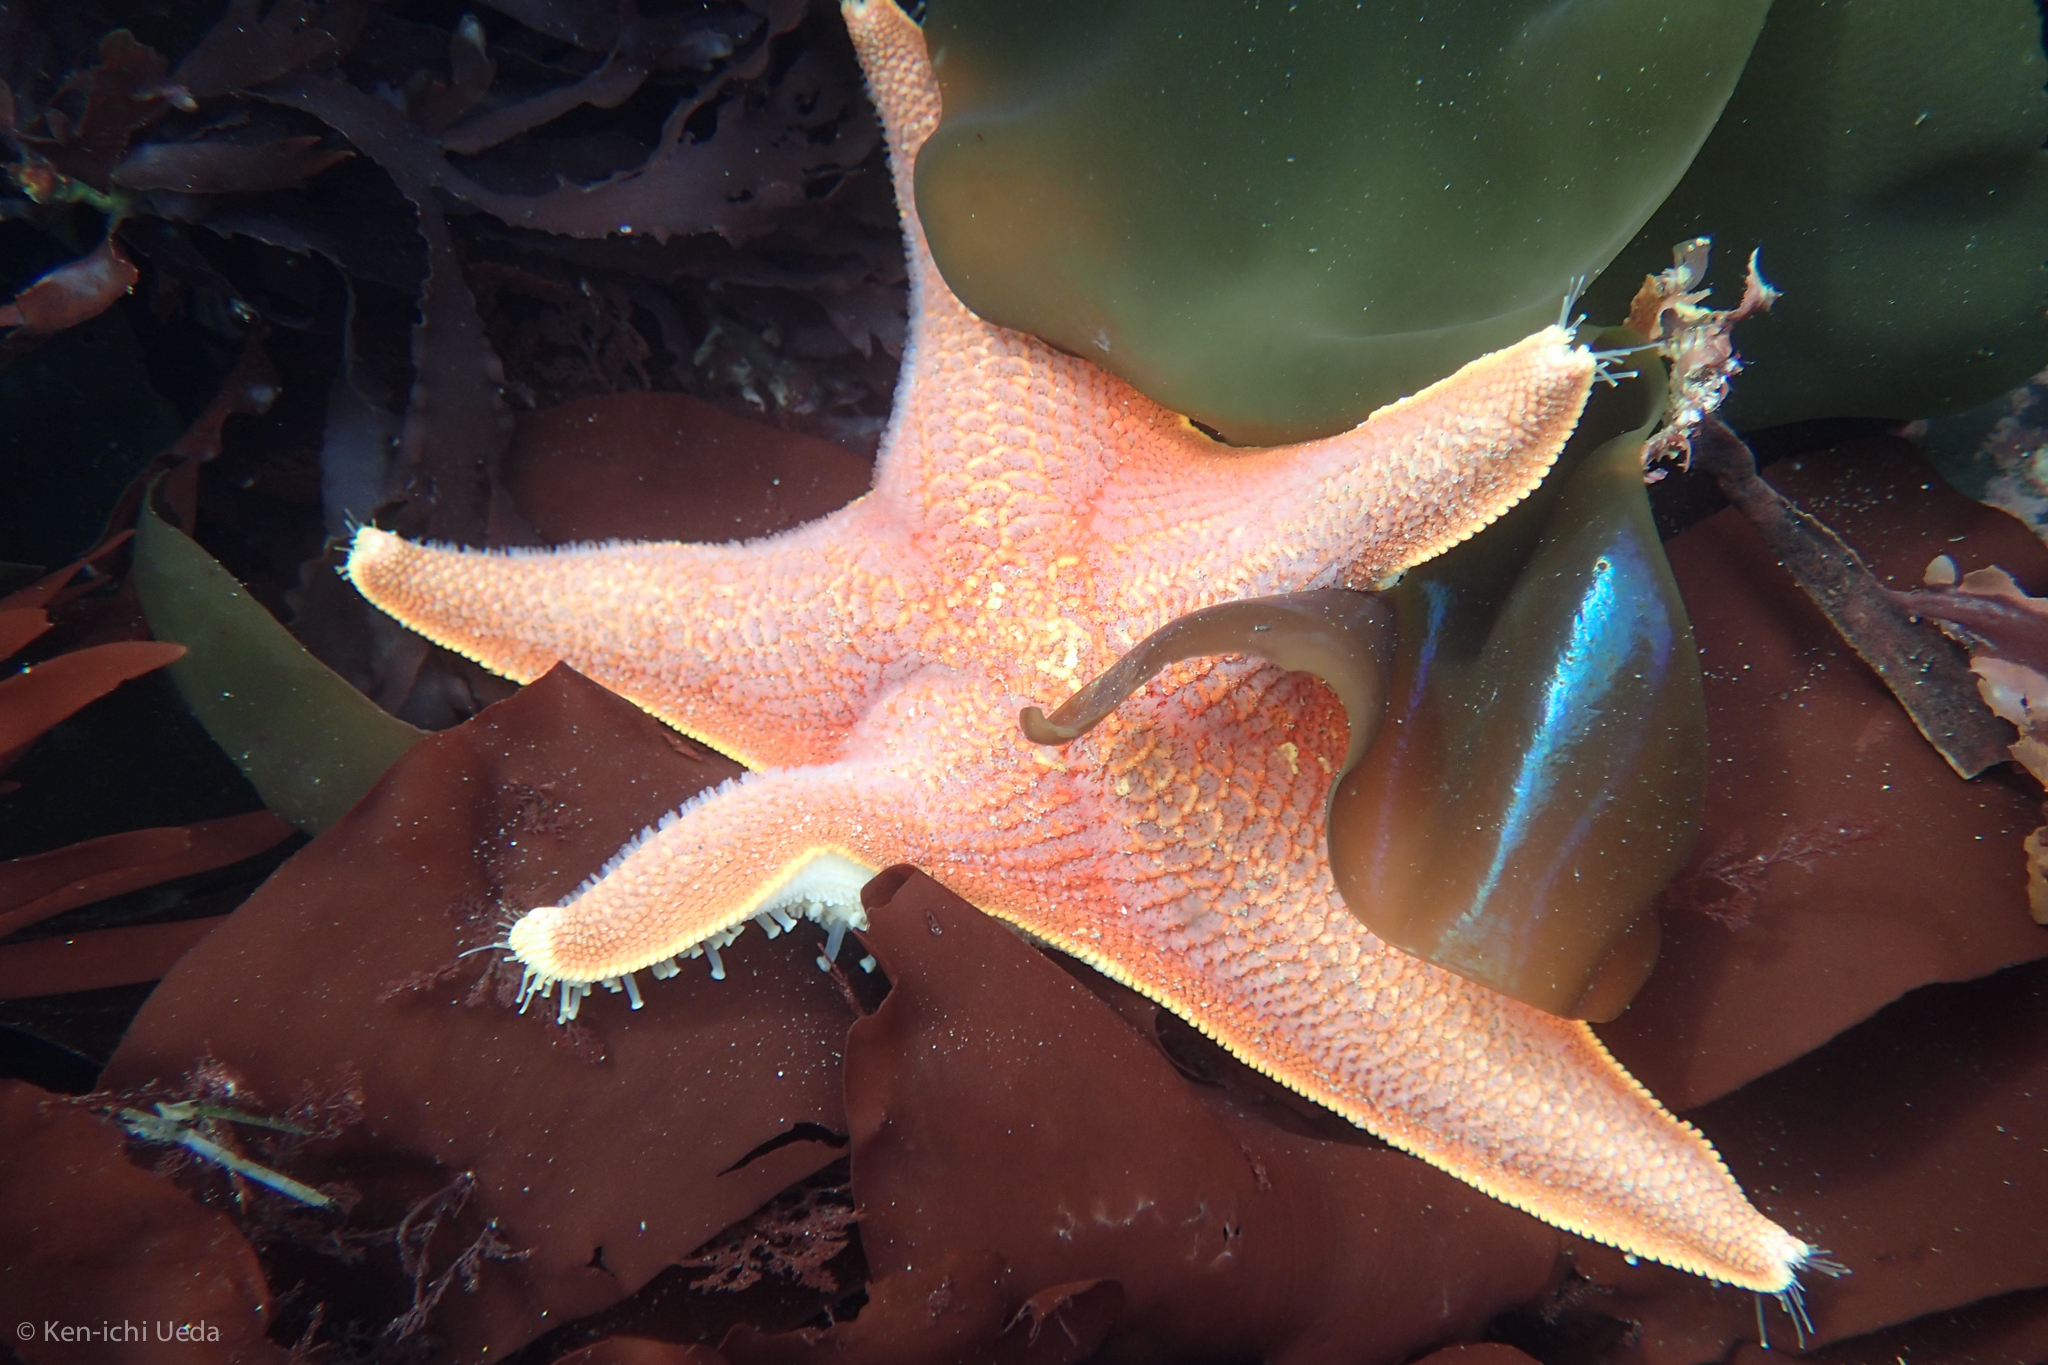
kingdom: Animalia
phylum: Echinodermata
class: Asteroidea
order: Valvatida
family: Asterinidae
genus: Patiria
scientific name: Patiria miniata
